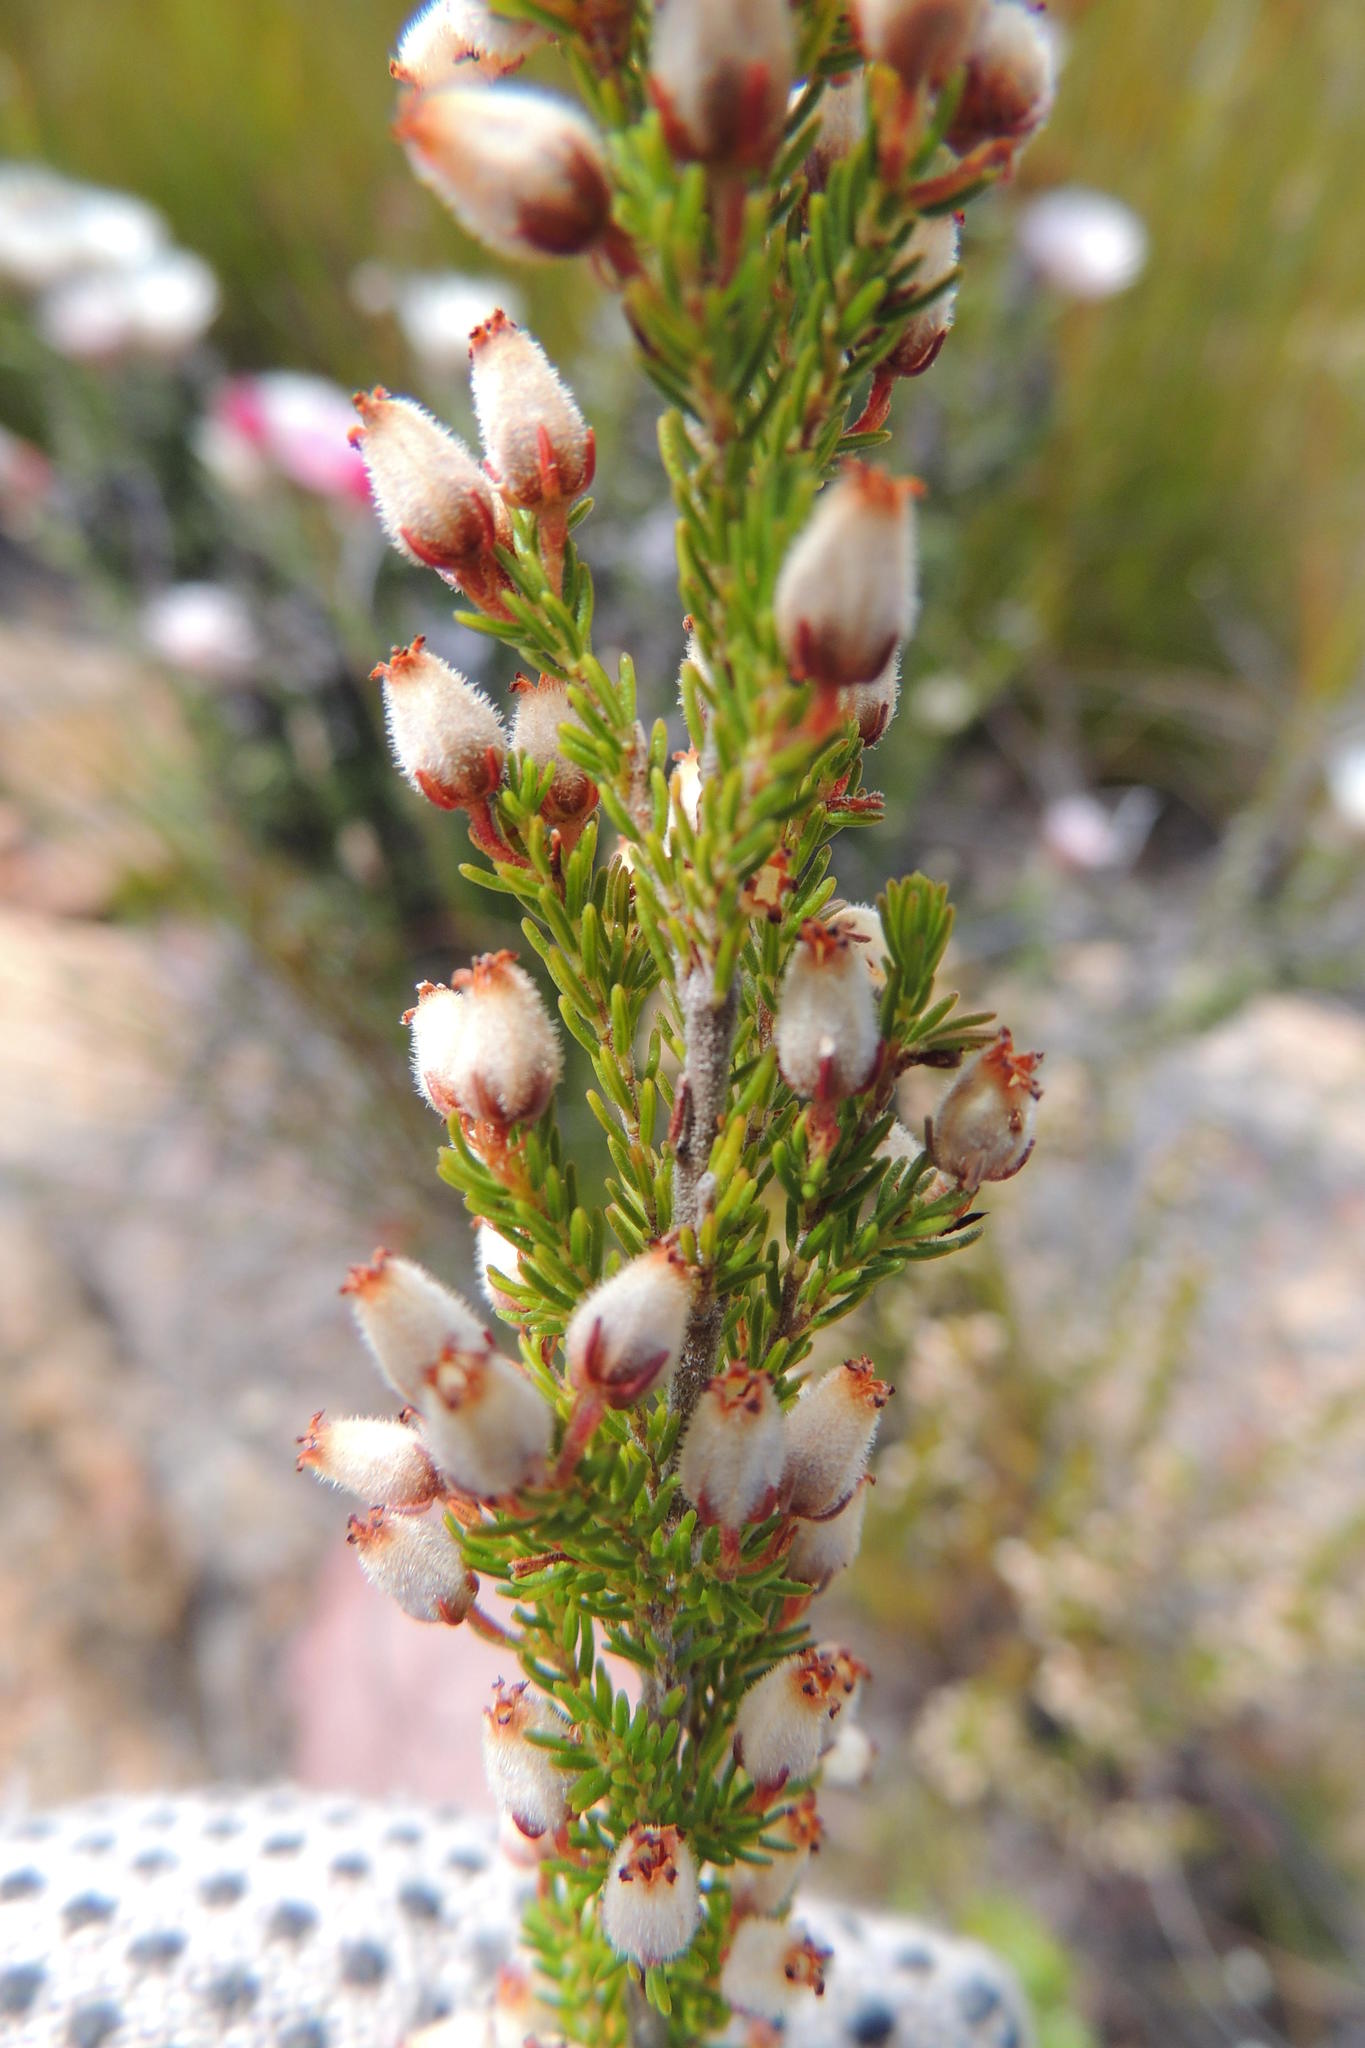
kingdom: Plantae
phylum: Tracheophyta
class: Magnoliopsida
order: Ericales
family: Ericaceae
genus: Erica
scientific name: Erica pubigera
